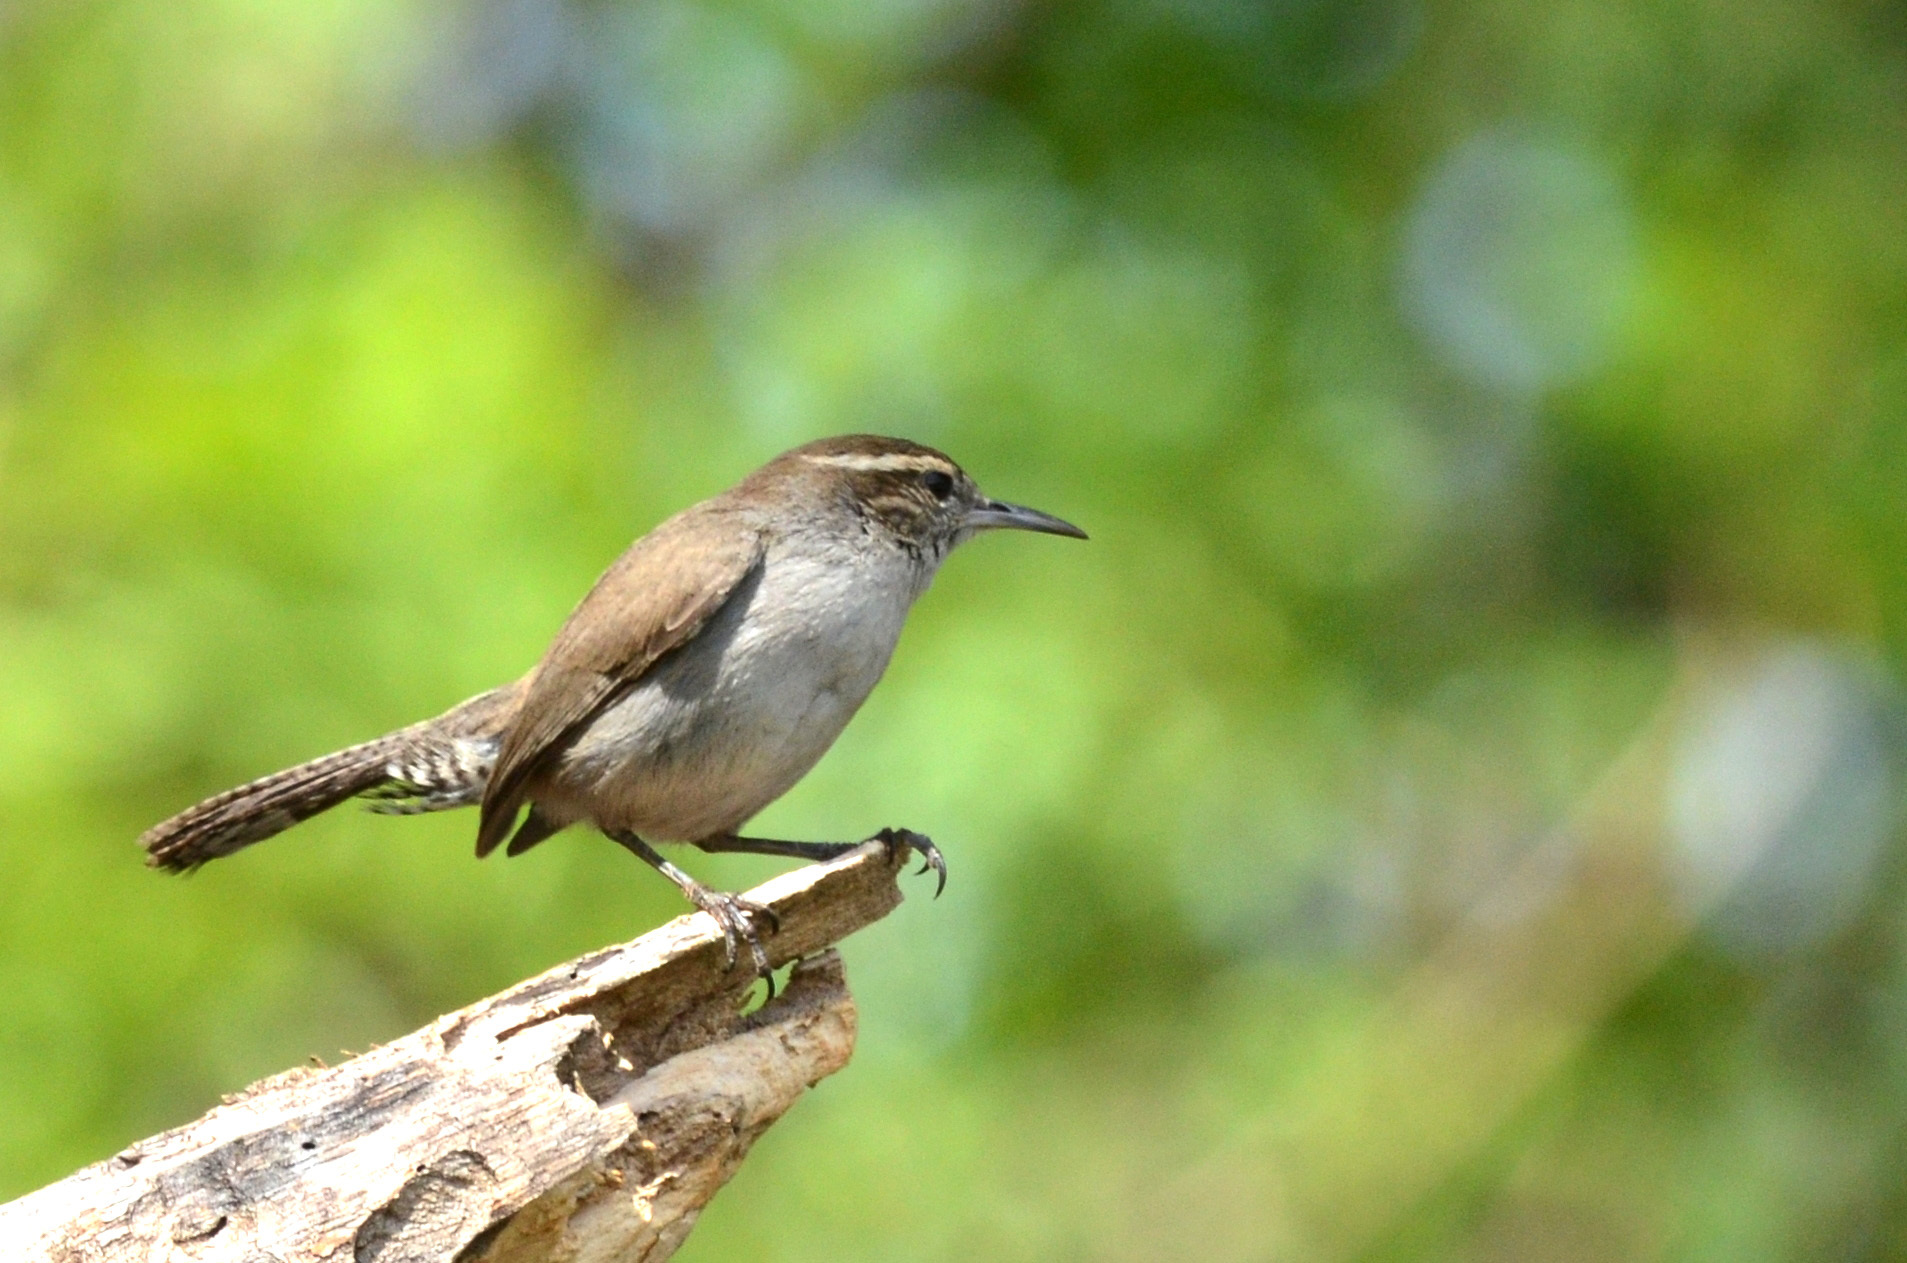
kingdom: Animalia
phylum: Chordata
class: Aves
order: Passeriformes
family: Troglodytidae
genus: Thryomanes
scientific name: Thryomanes bewickii
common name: Bewick's wren
